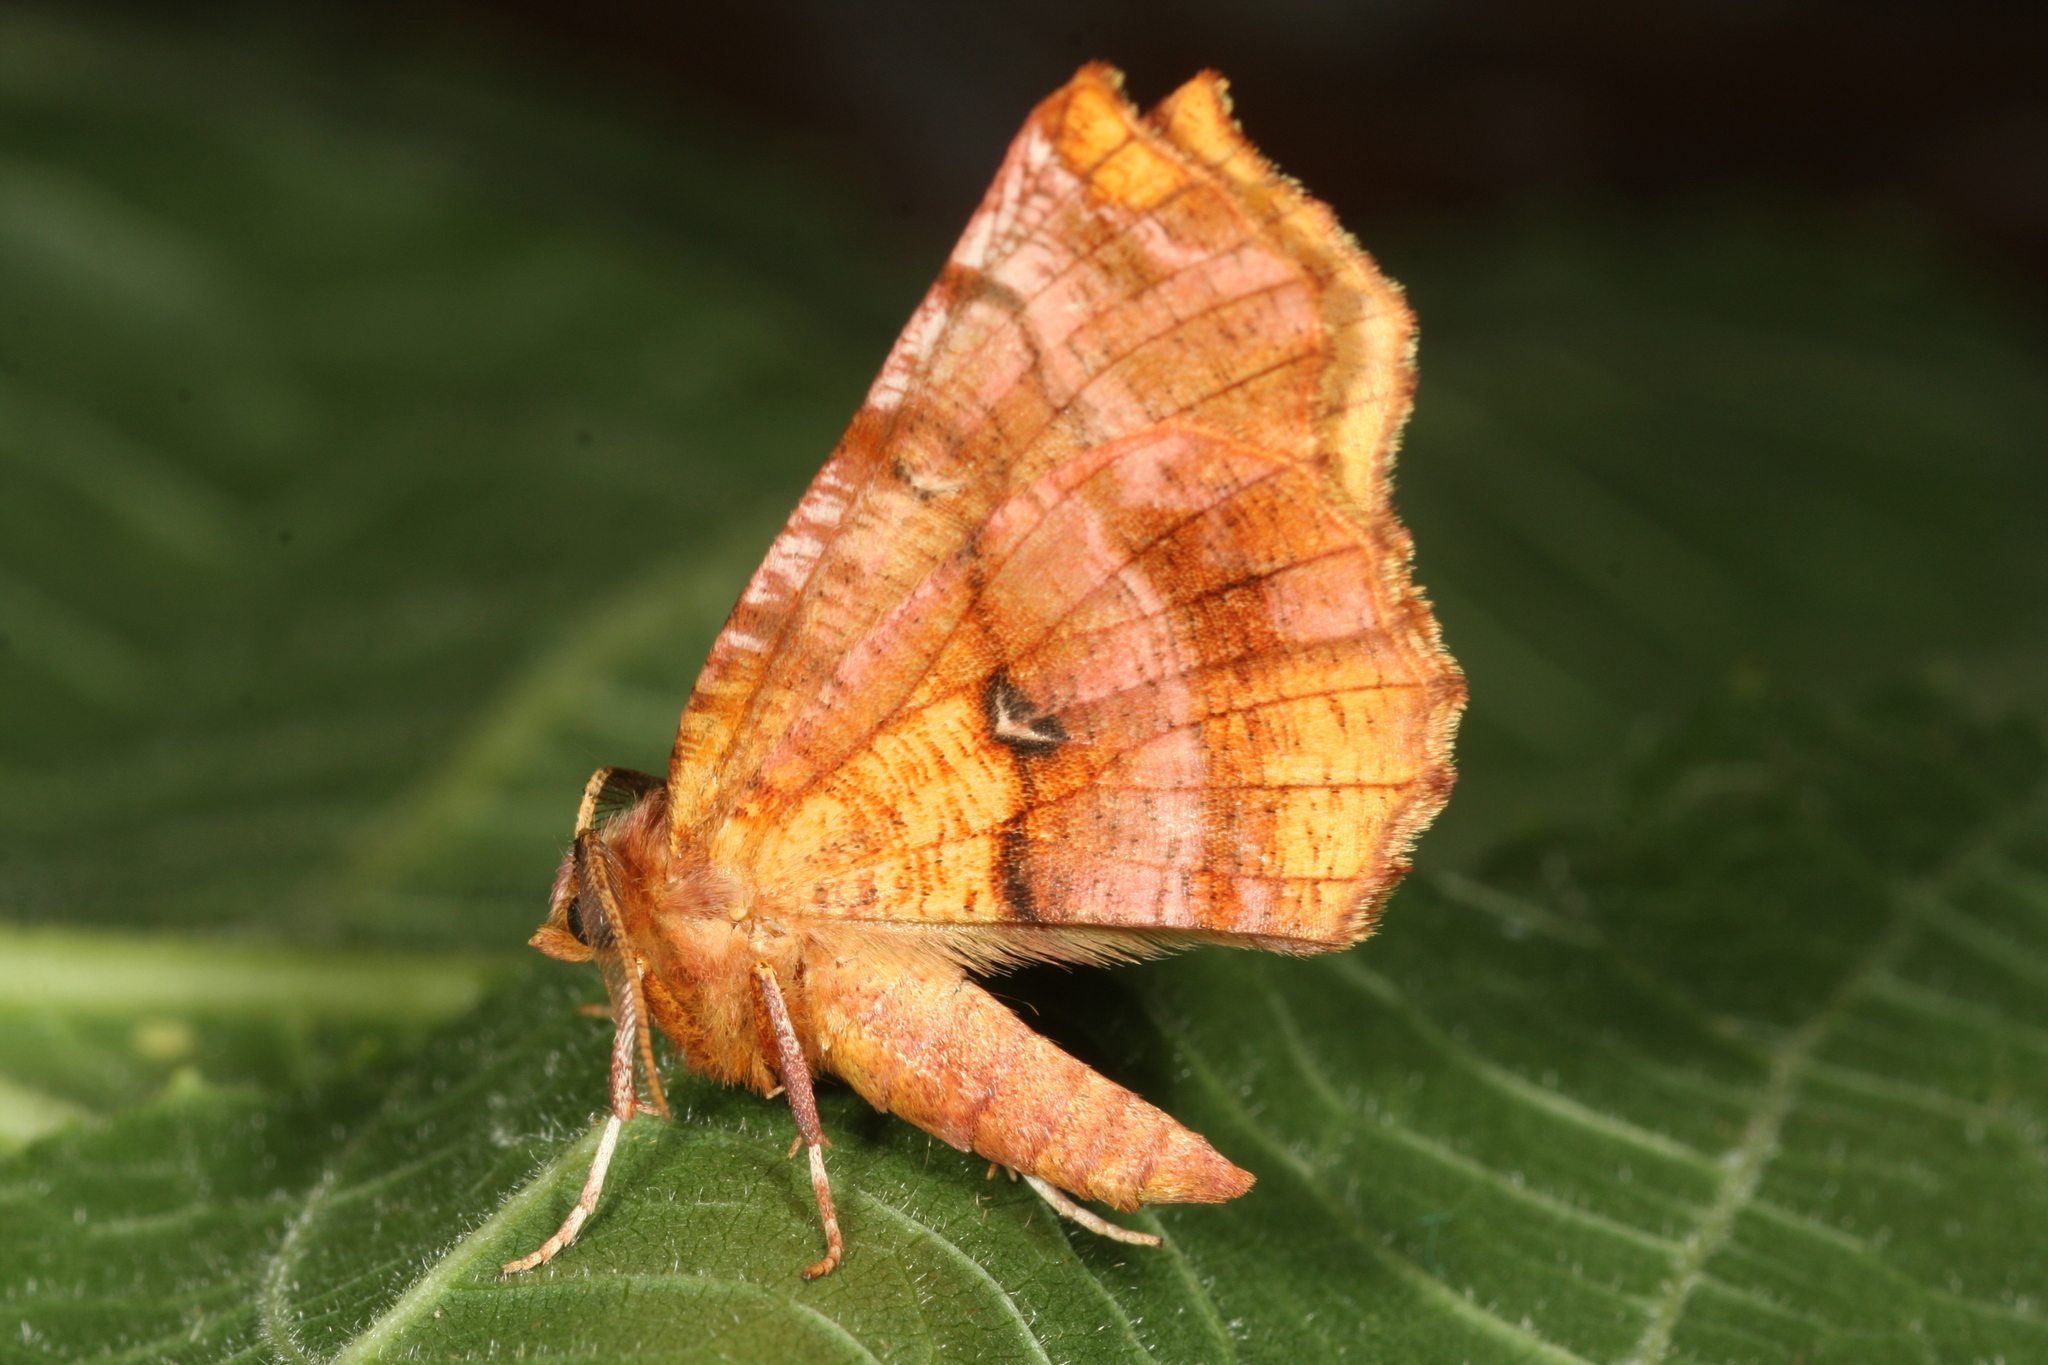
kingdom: Animalia
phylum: Arthropoda
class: Insecta
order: Lepidoptera
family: Geometridae
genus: Selenia
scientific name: Selenia dentaria
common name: Early thorn
